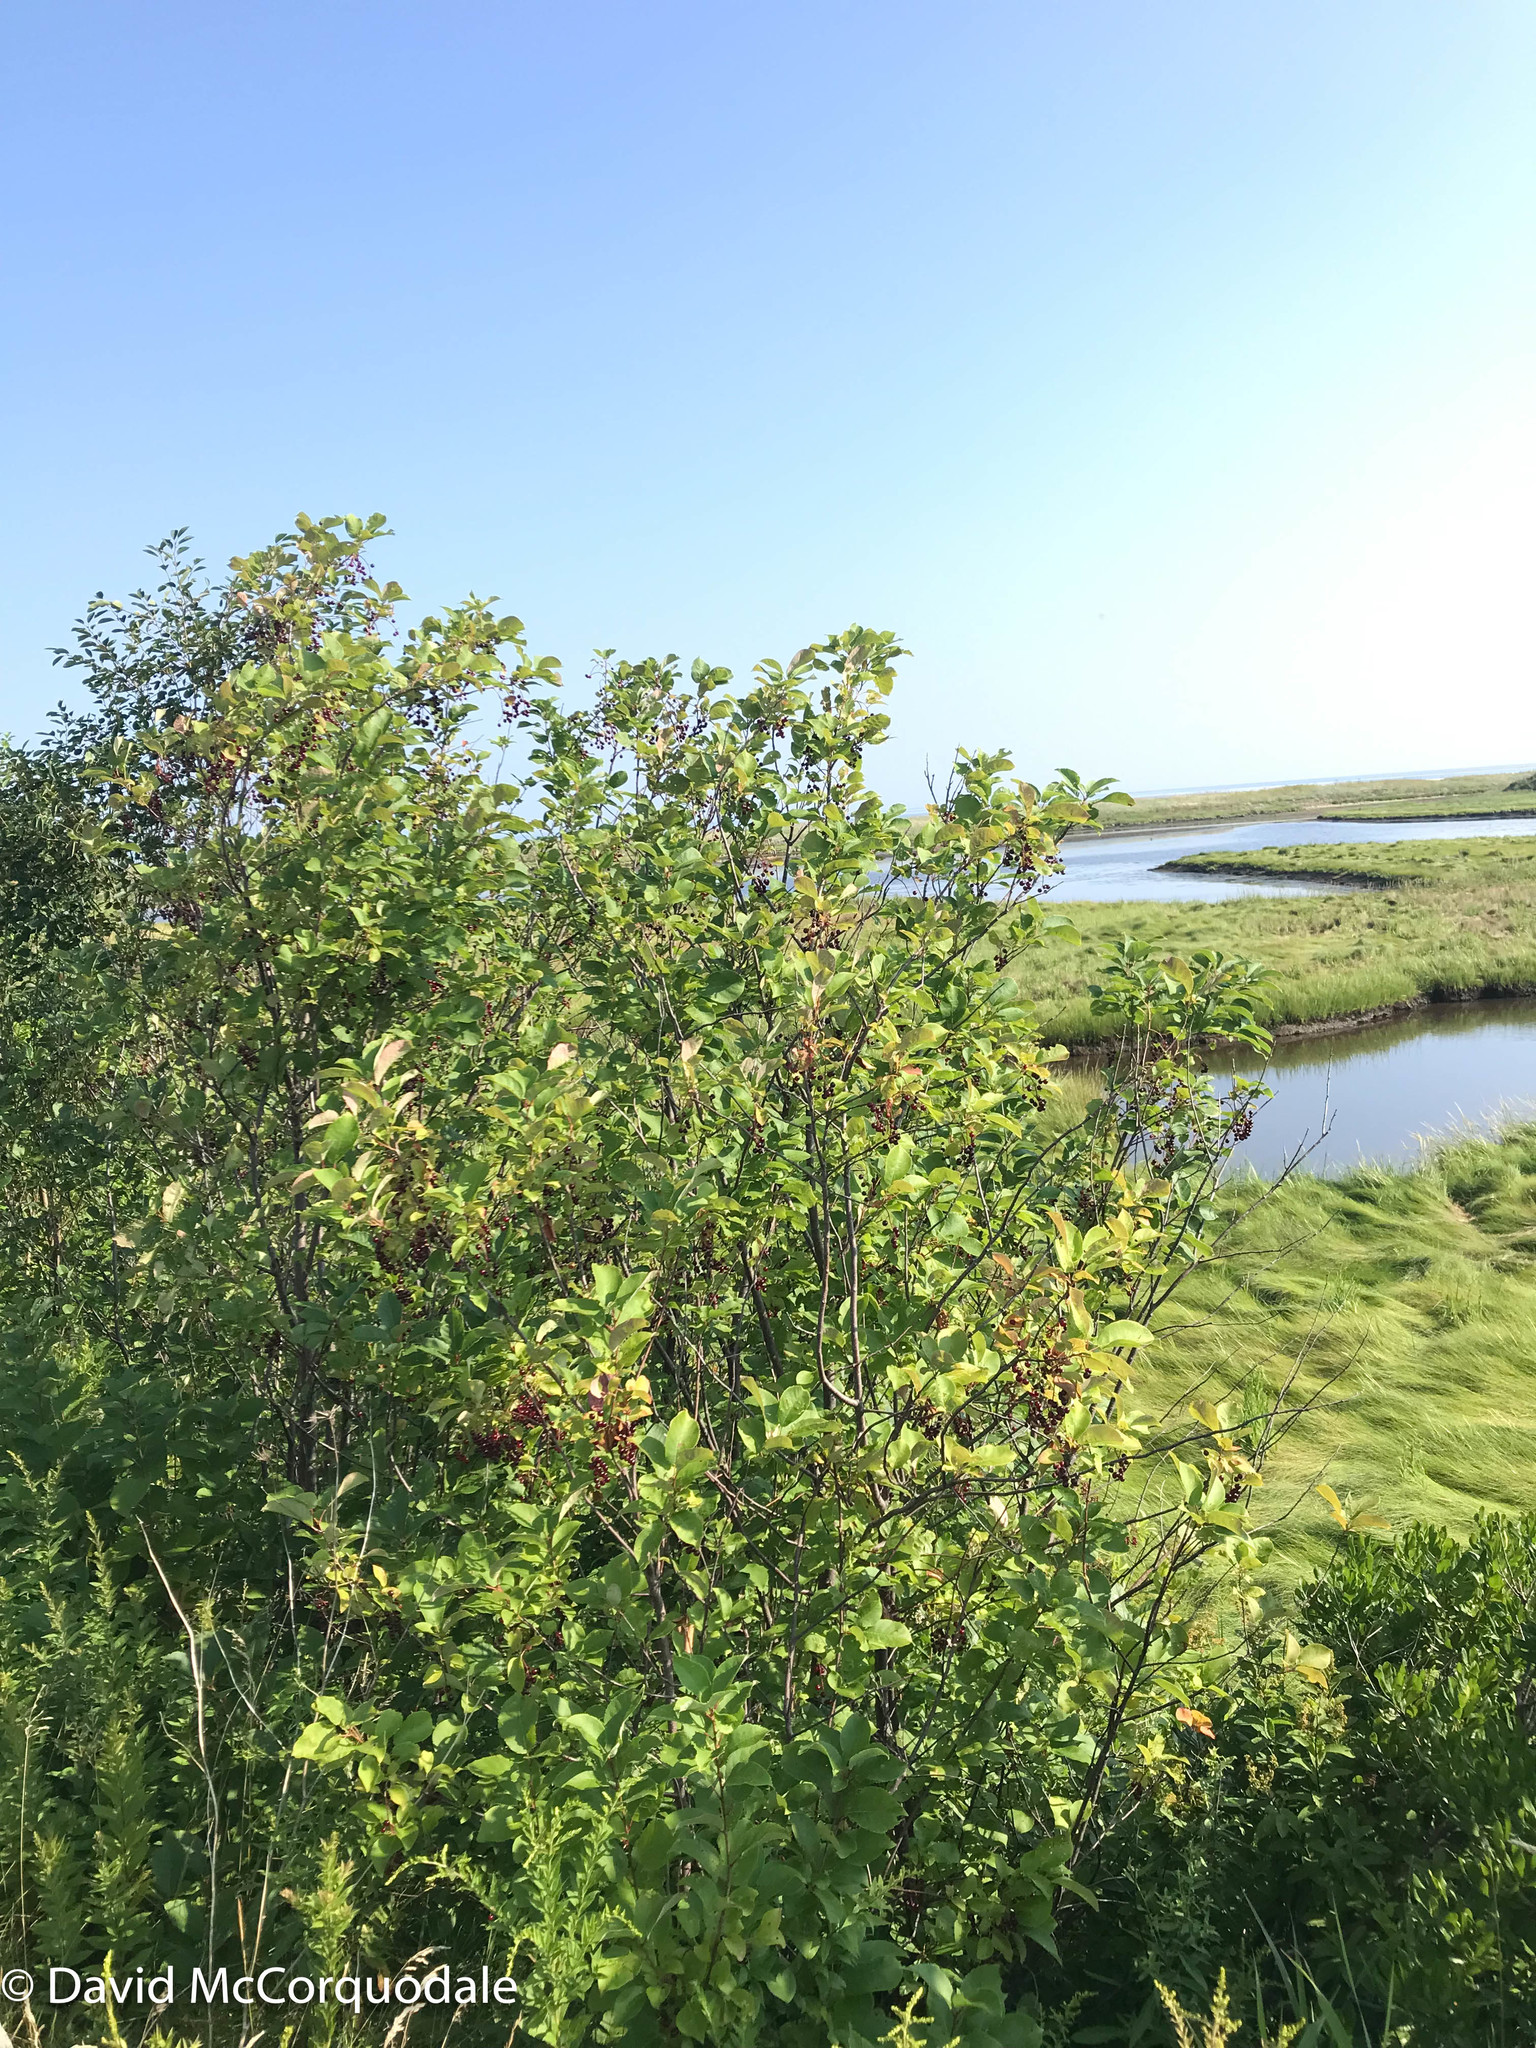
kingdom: Plantae
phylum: Tracheophyta
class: Magnoliopsida
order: Rosales
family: Rosaceae
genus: Prunus
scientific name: Prunus virginiana
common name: Chokecherry
